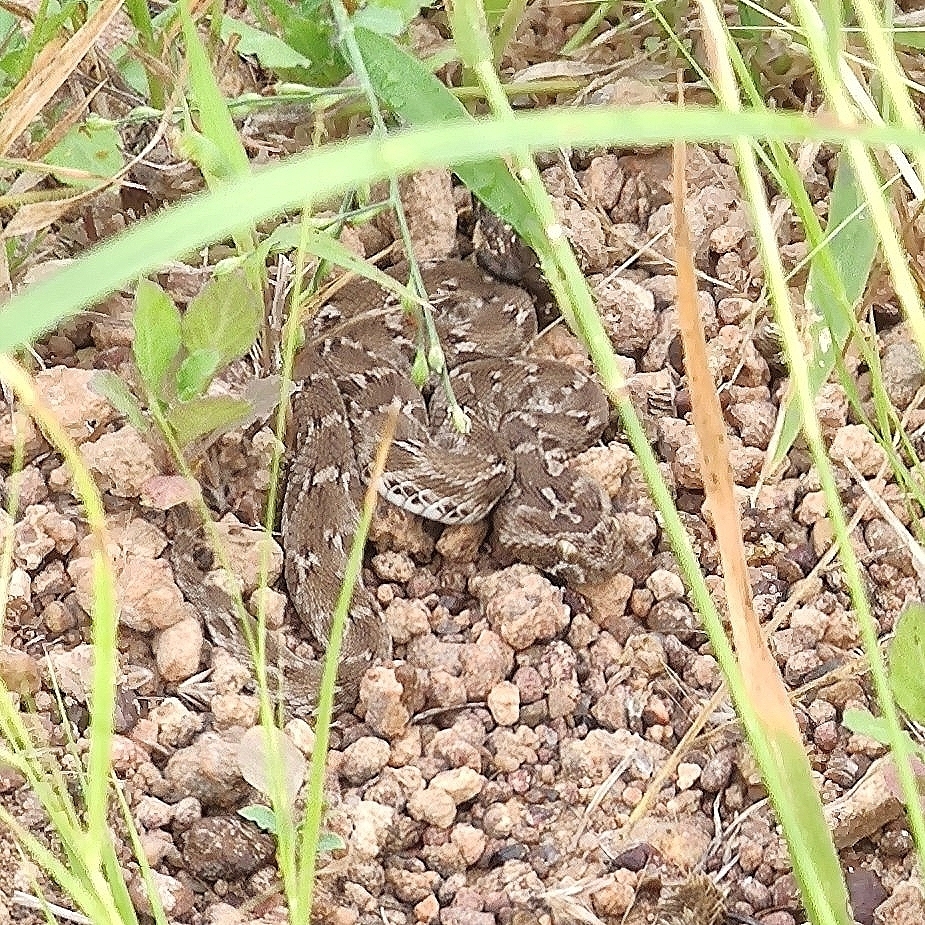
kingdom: Animalia
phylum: Chordata
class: Squamata
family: Viperidae
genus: Echis
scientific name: Echis carinatus
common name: Saw-scaled viper
